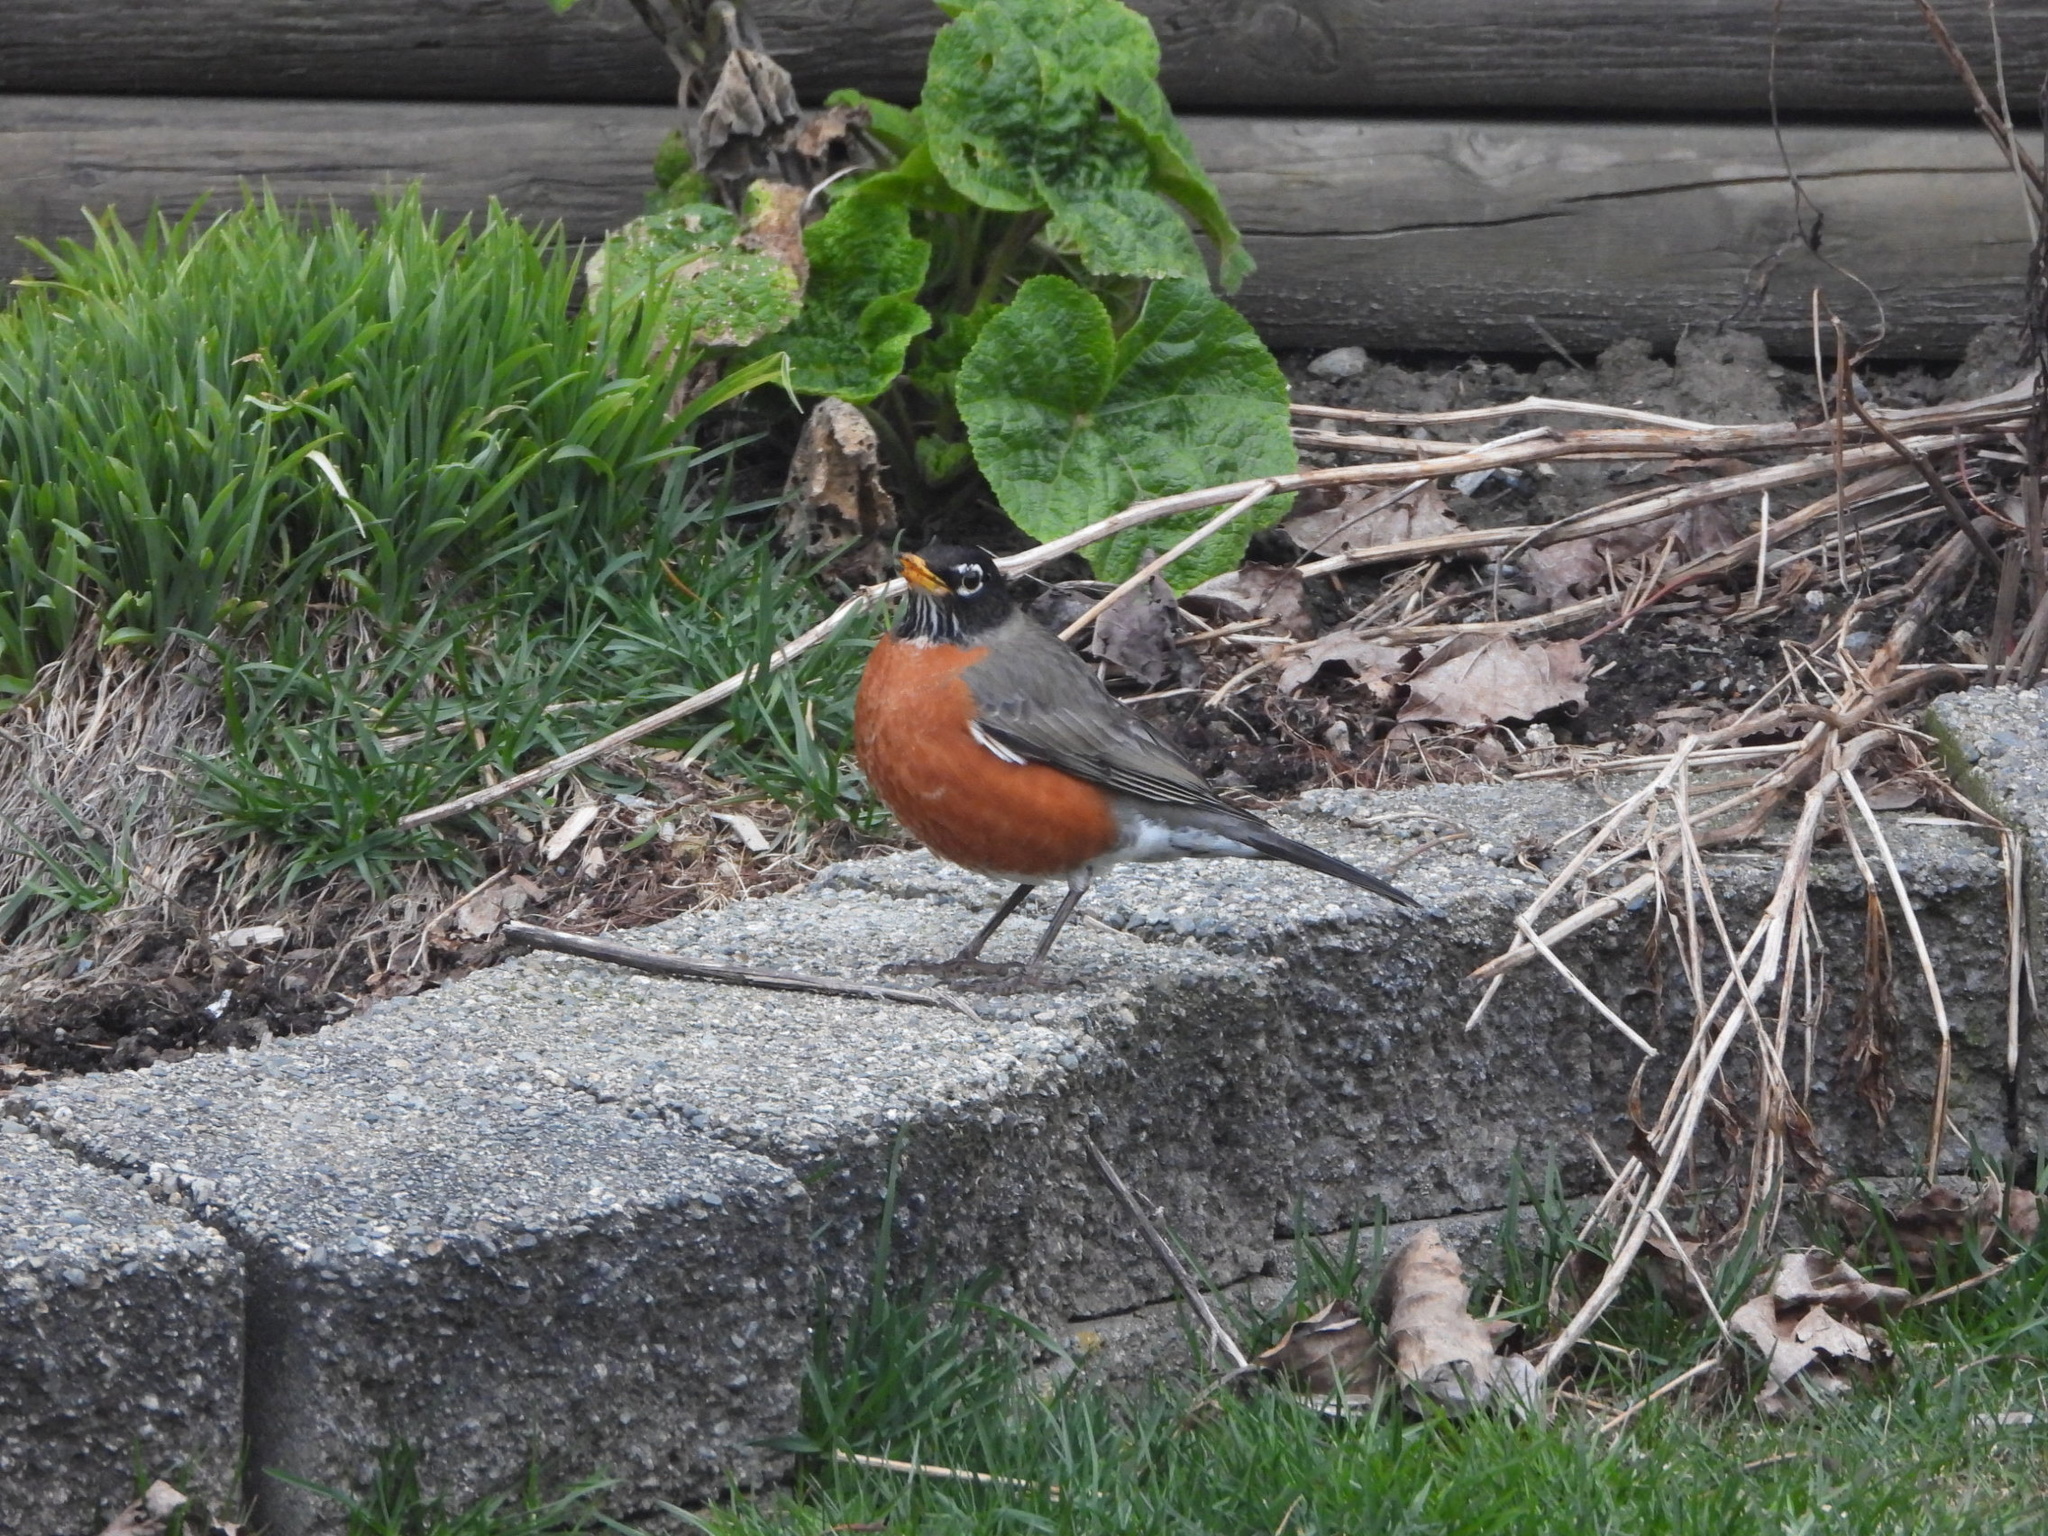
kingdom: Animalia
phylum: Chordata
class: Aves
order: Passeriformes
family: Turdidae
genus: Turdus
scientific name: Turdus migratorius
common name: American robin
